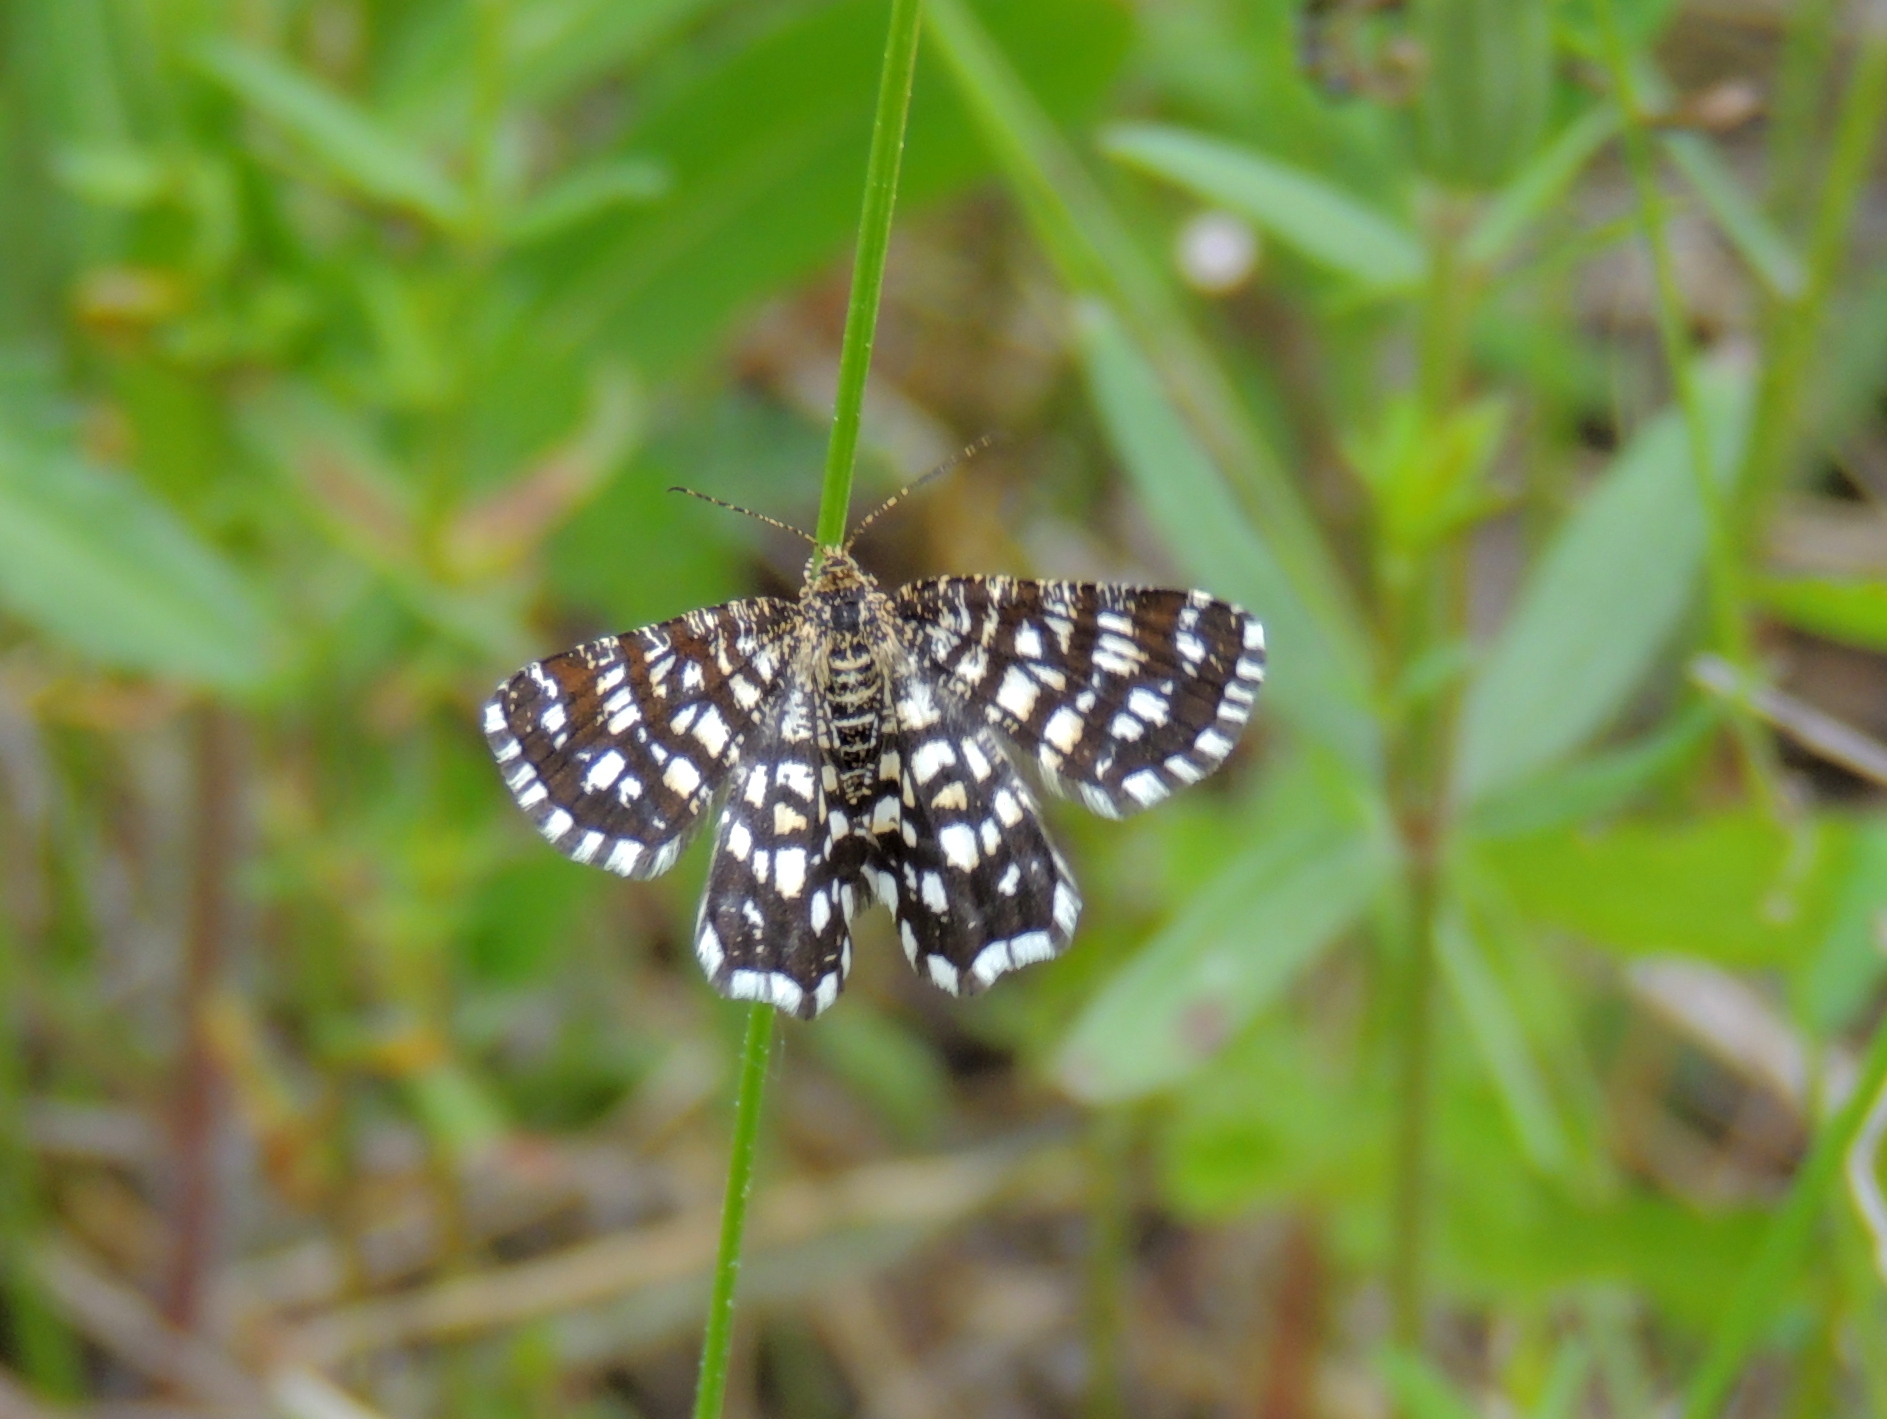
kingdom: Animalia
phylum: Arthropoda
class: Insecta
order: Lepidoptera
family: Geometridae
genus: Chiasmia
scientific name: Chiasmia clathrata
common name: Latticed heath
